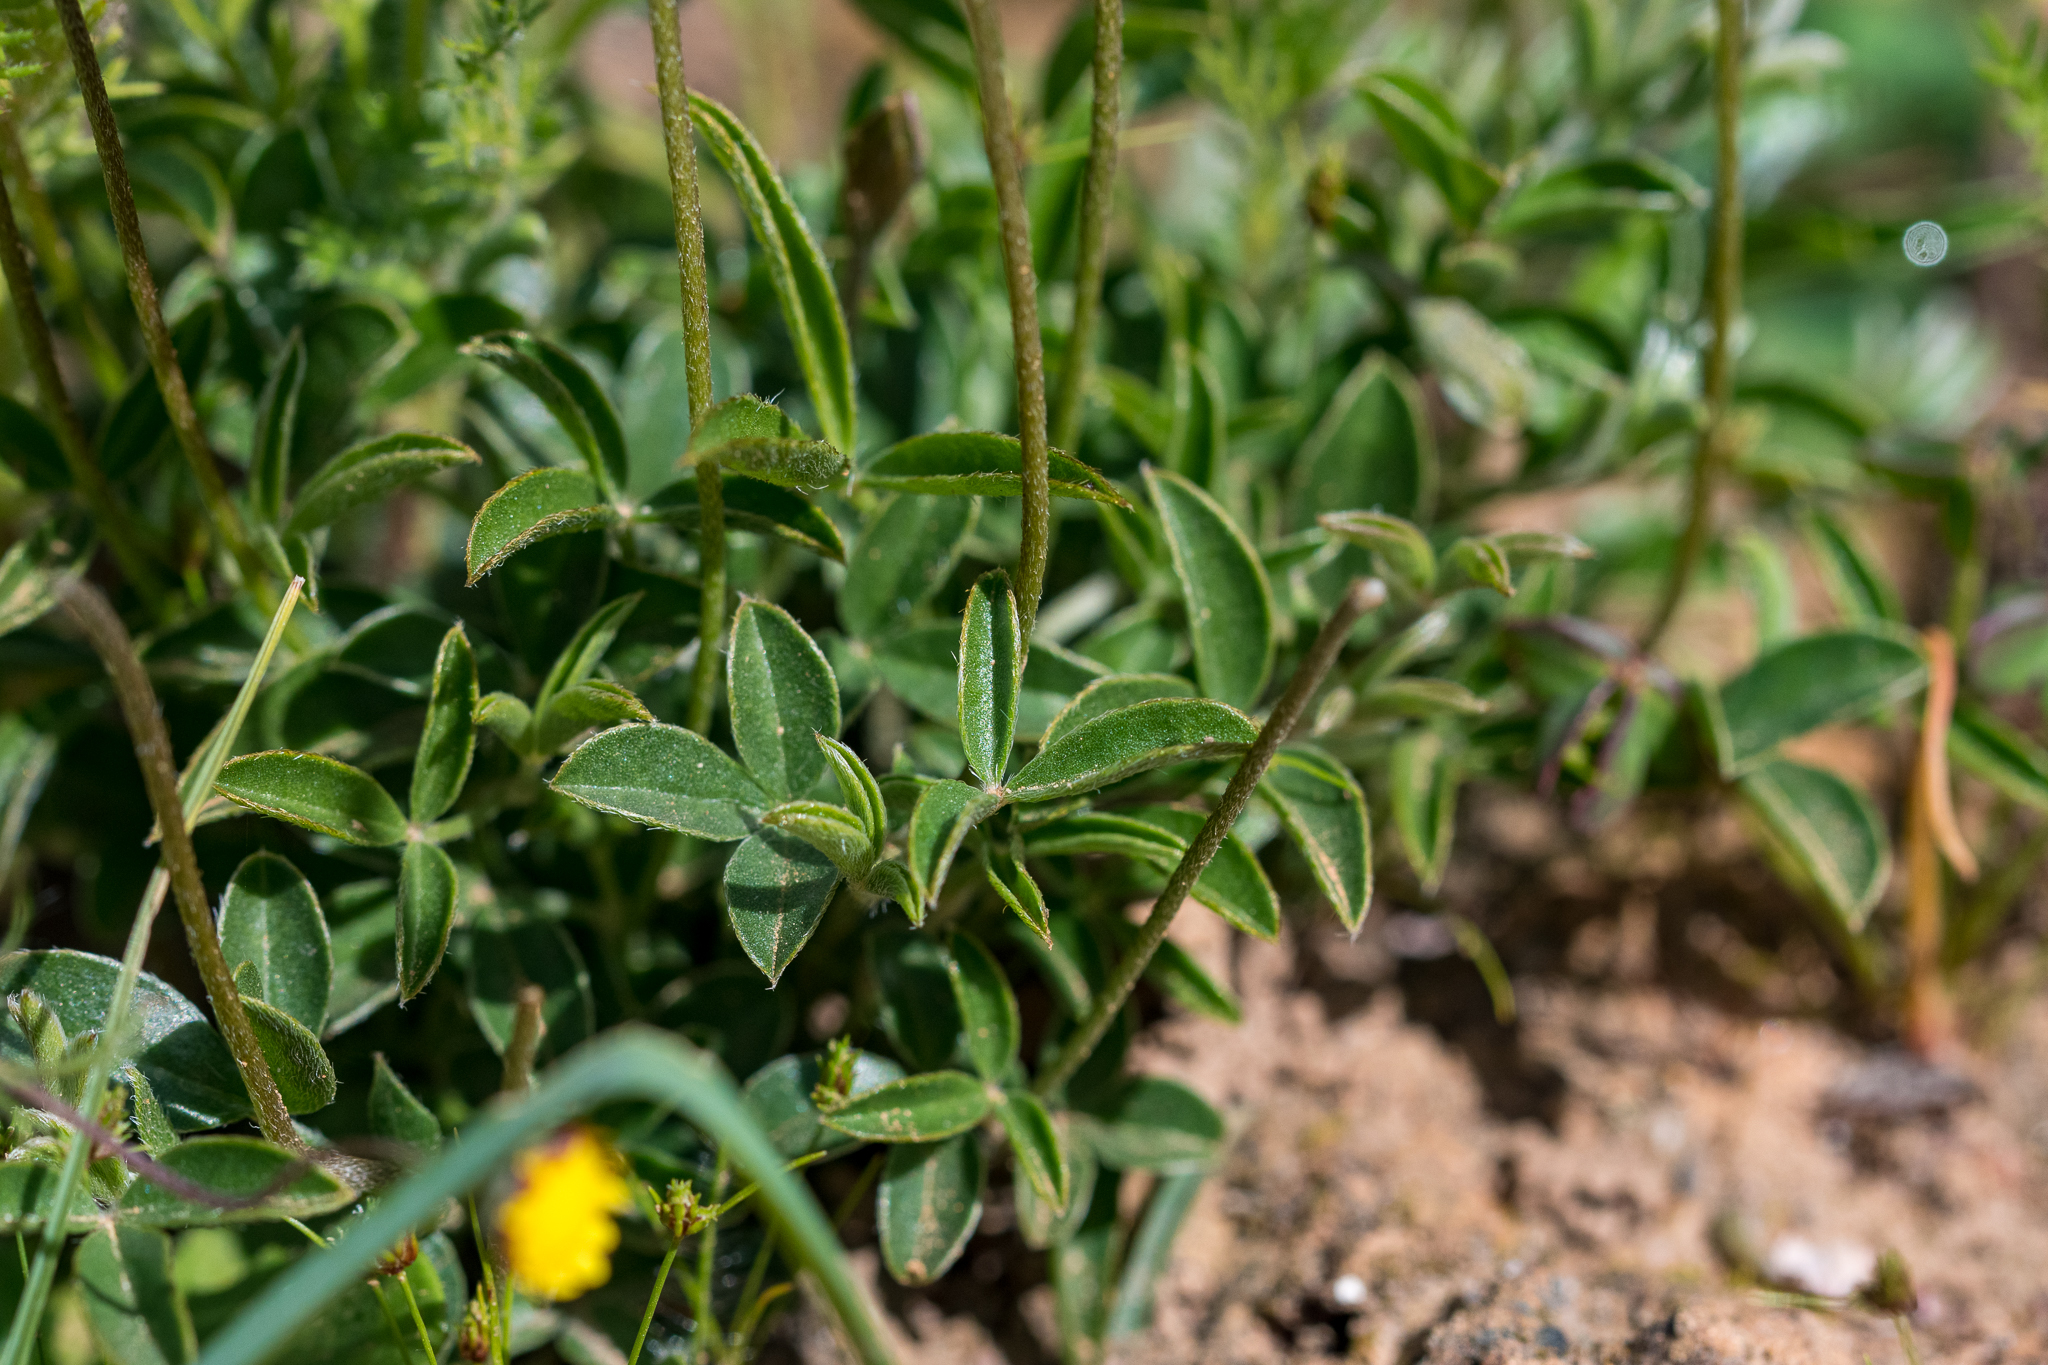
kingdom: Plantae
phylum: Tracheophyta
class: Magnoliopsida
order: Fabales
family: Fabaceae
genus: Lotononis
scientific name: Lotononis prostrata
